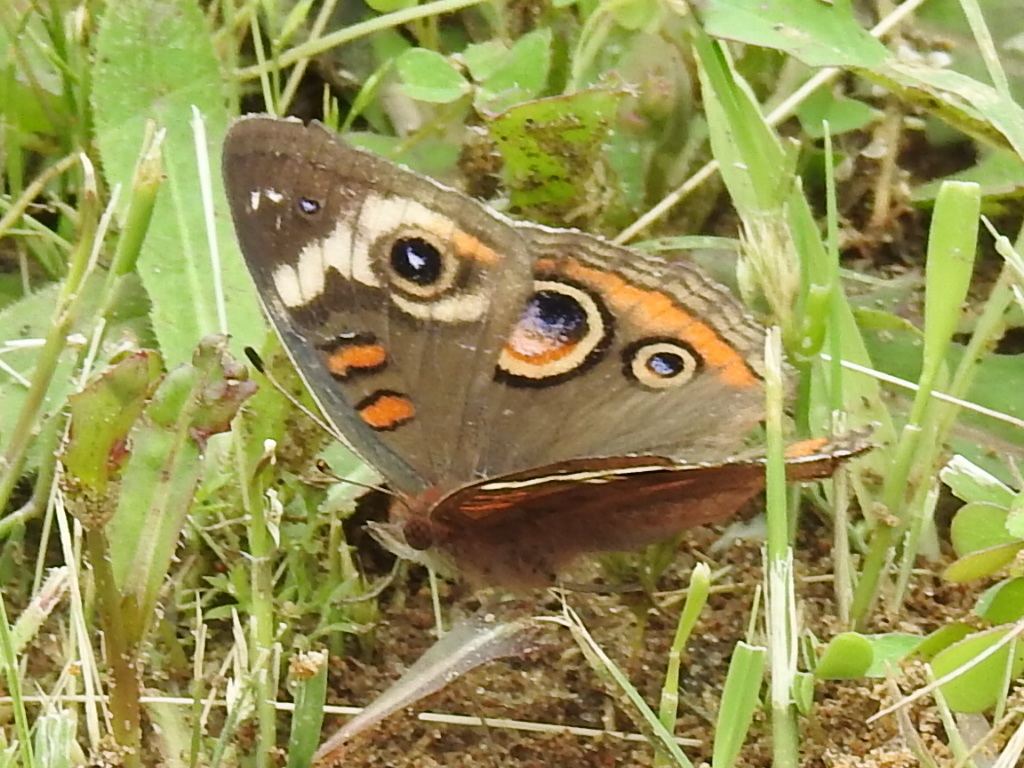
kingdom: Animalia
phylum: Arthropoda
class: Insecta
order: Lepidoptera
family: Nymphalidae
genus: Junonia
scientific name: Junonia coenia
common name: Common buckeye
